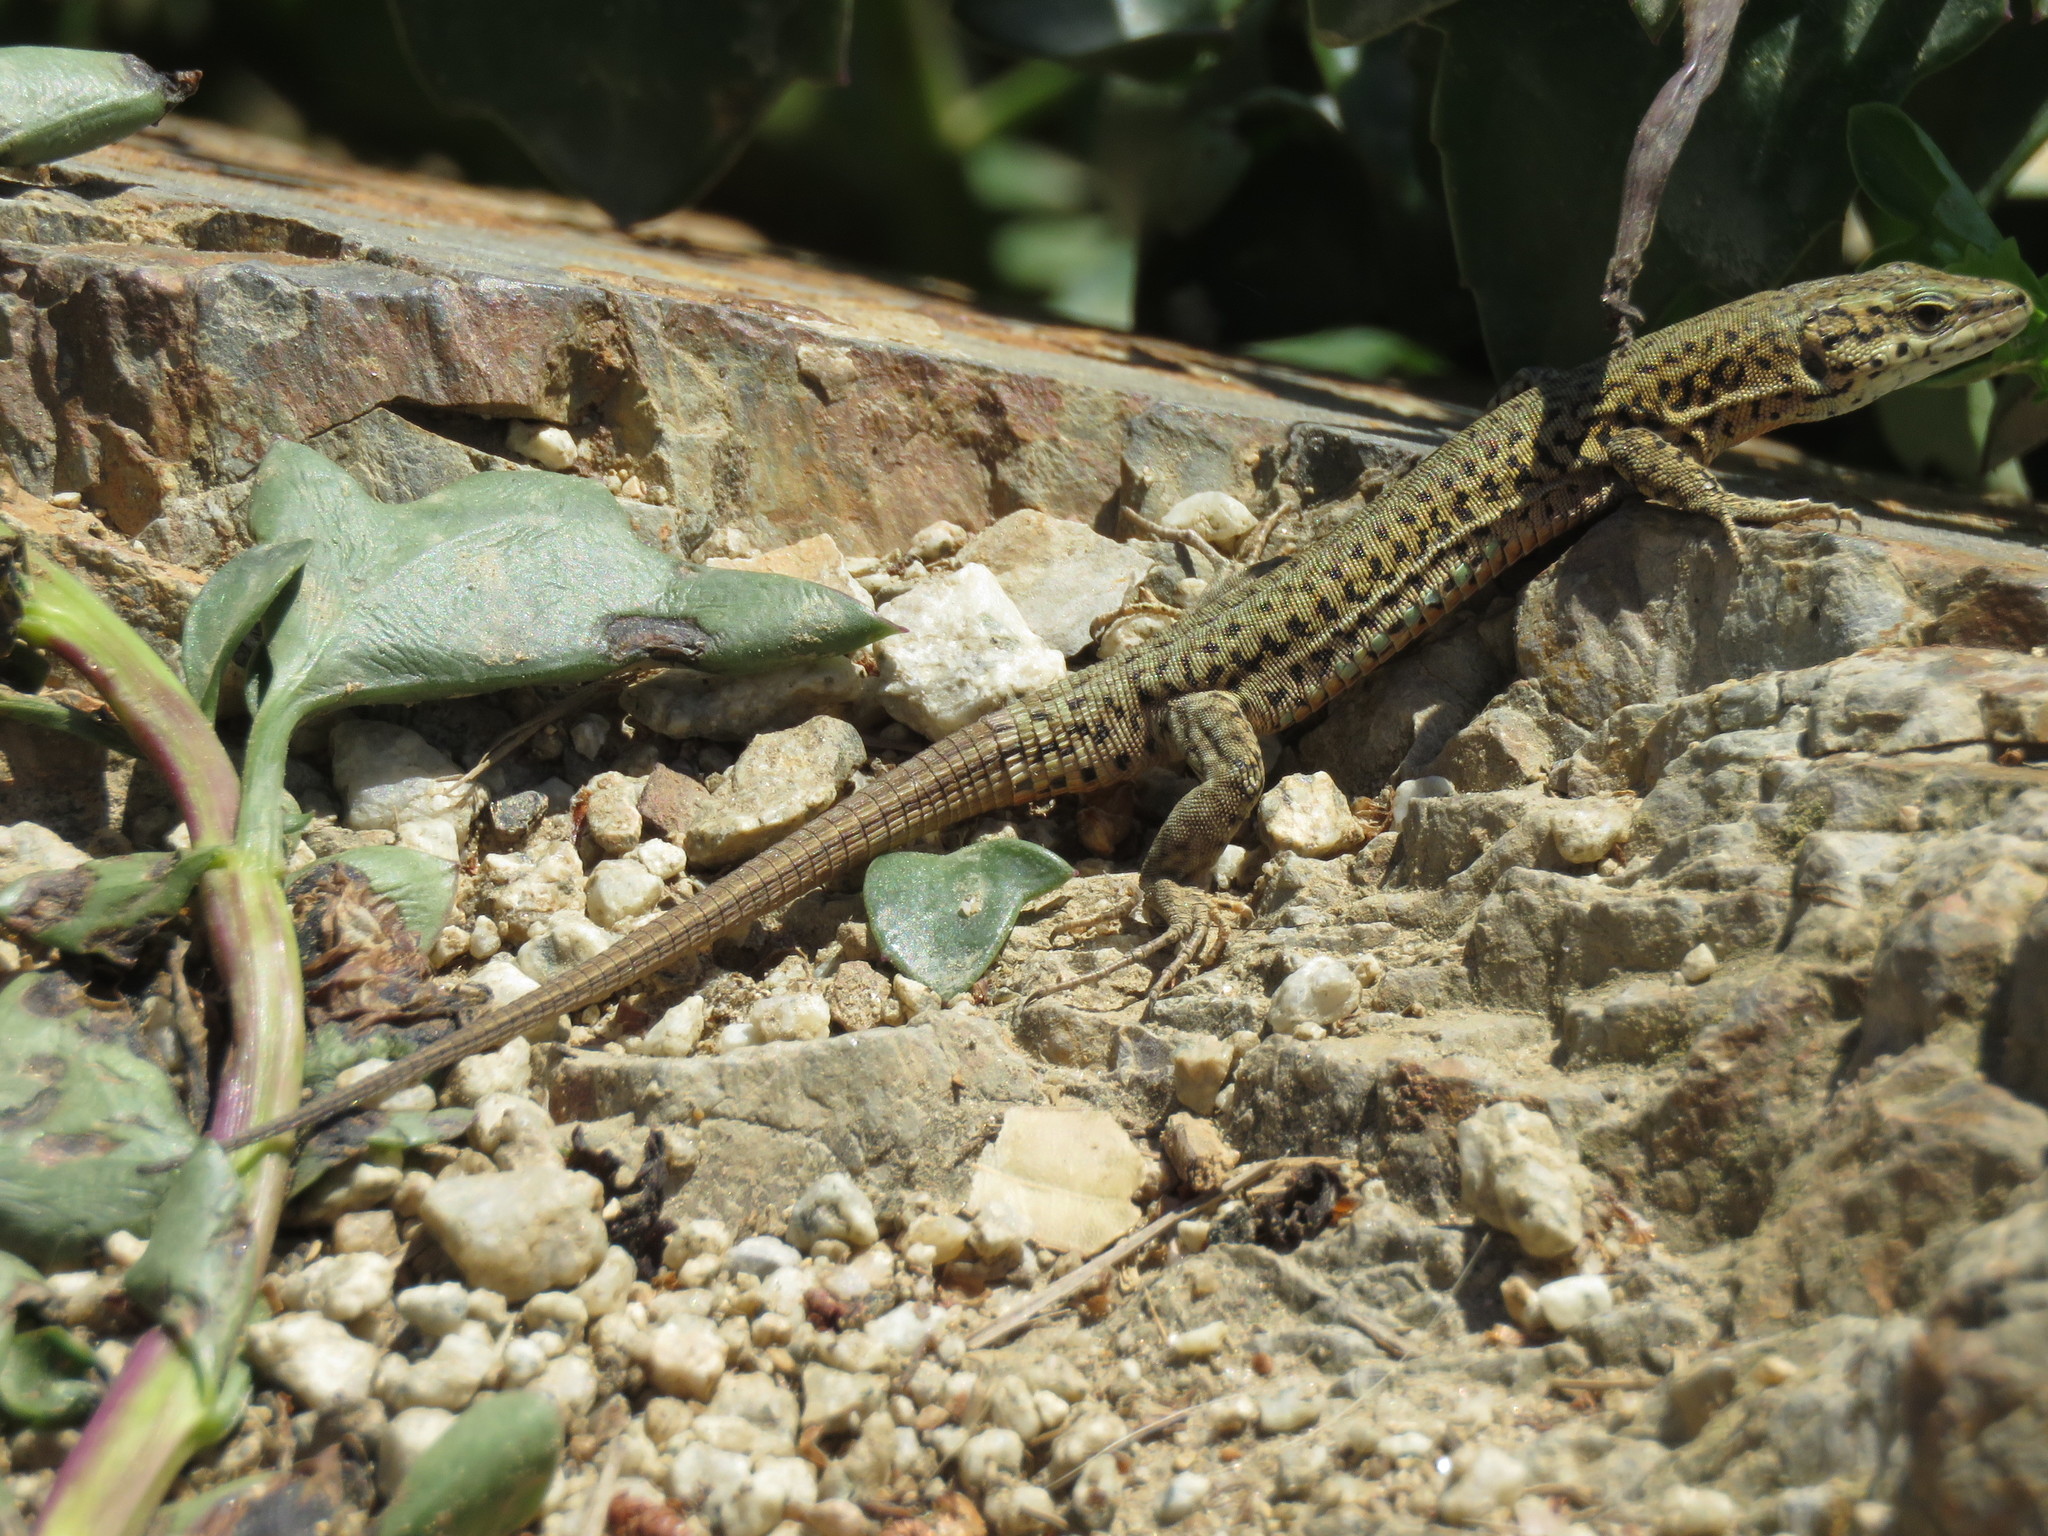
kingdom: Animalia
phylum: Chordata
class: Squamata
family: Lacertidae
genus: Podarcis
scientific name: Podarcis liolepis
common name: Catalonian wall lizard
